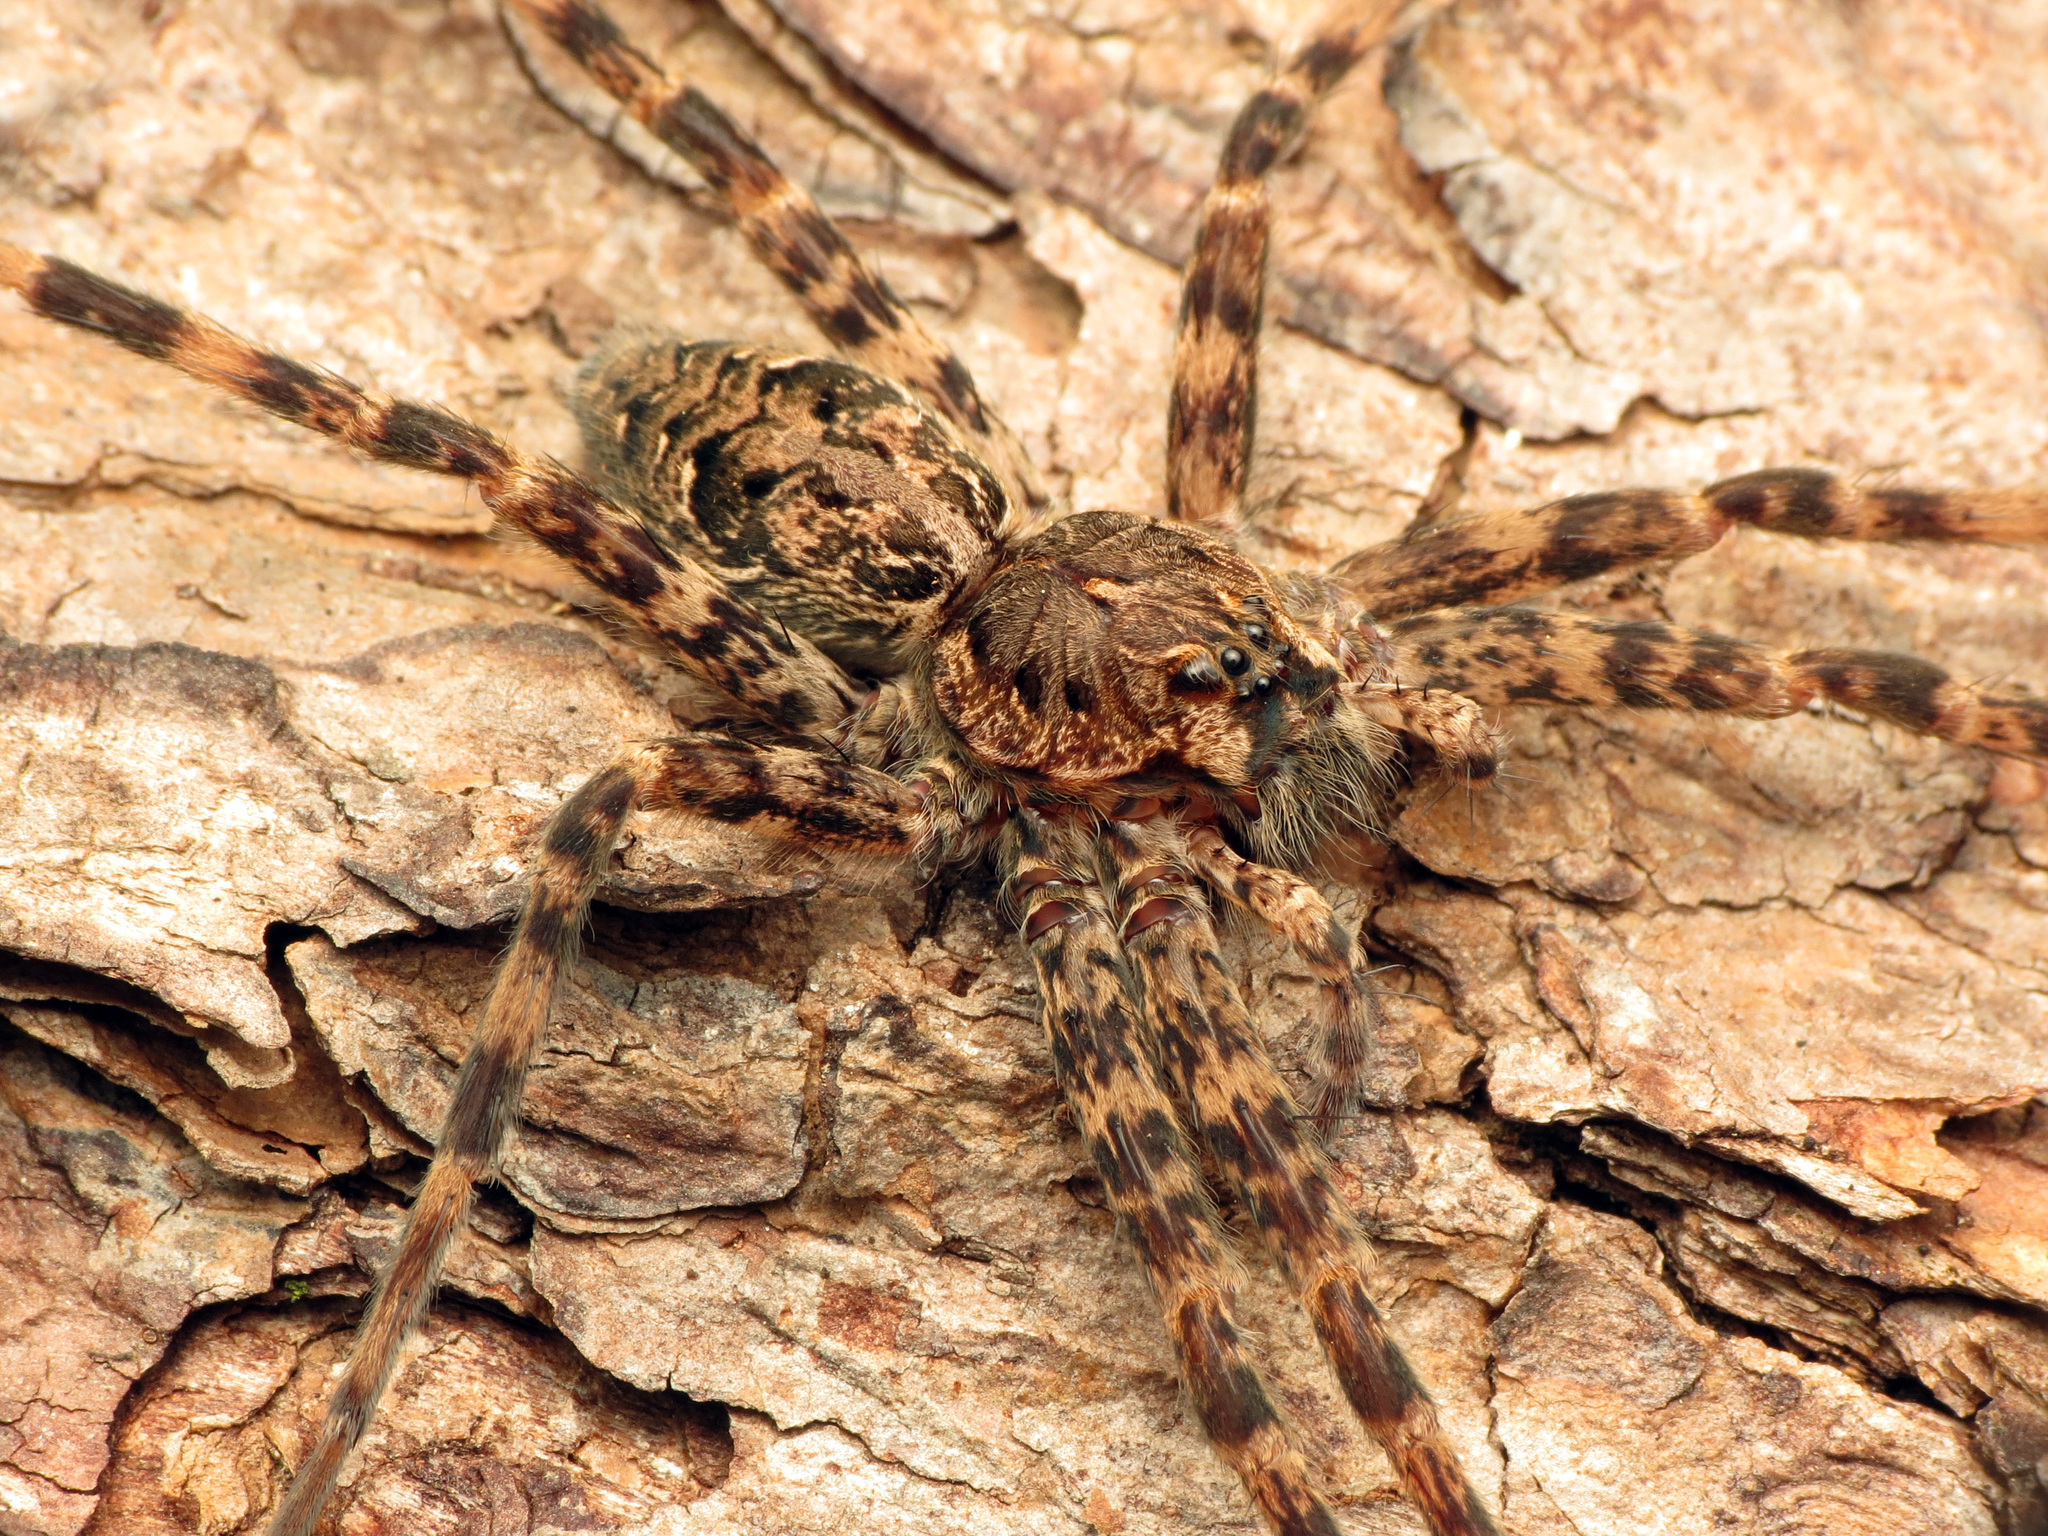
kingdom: Animalia
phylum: Arthropoda
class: Arachnida
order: Araneae
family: Pisauridae
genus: Dolomedes
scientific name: Dolomedes tenebrosus
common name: Dark fishing spider
